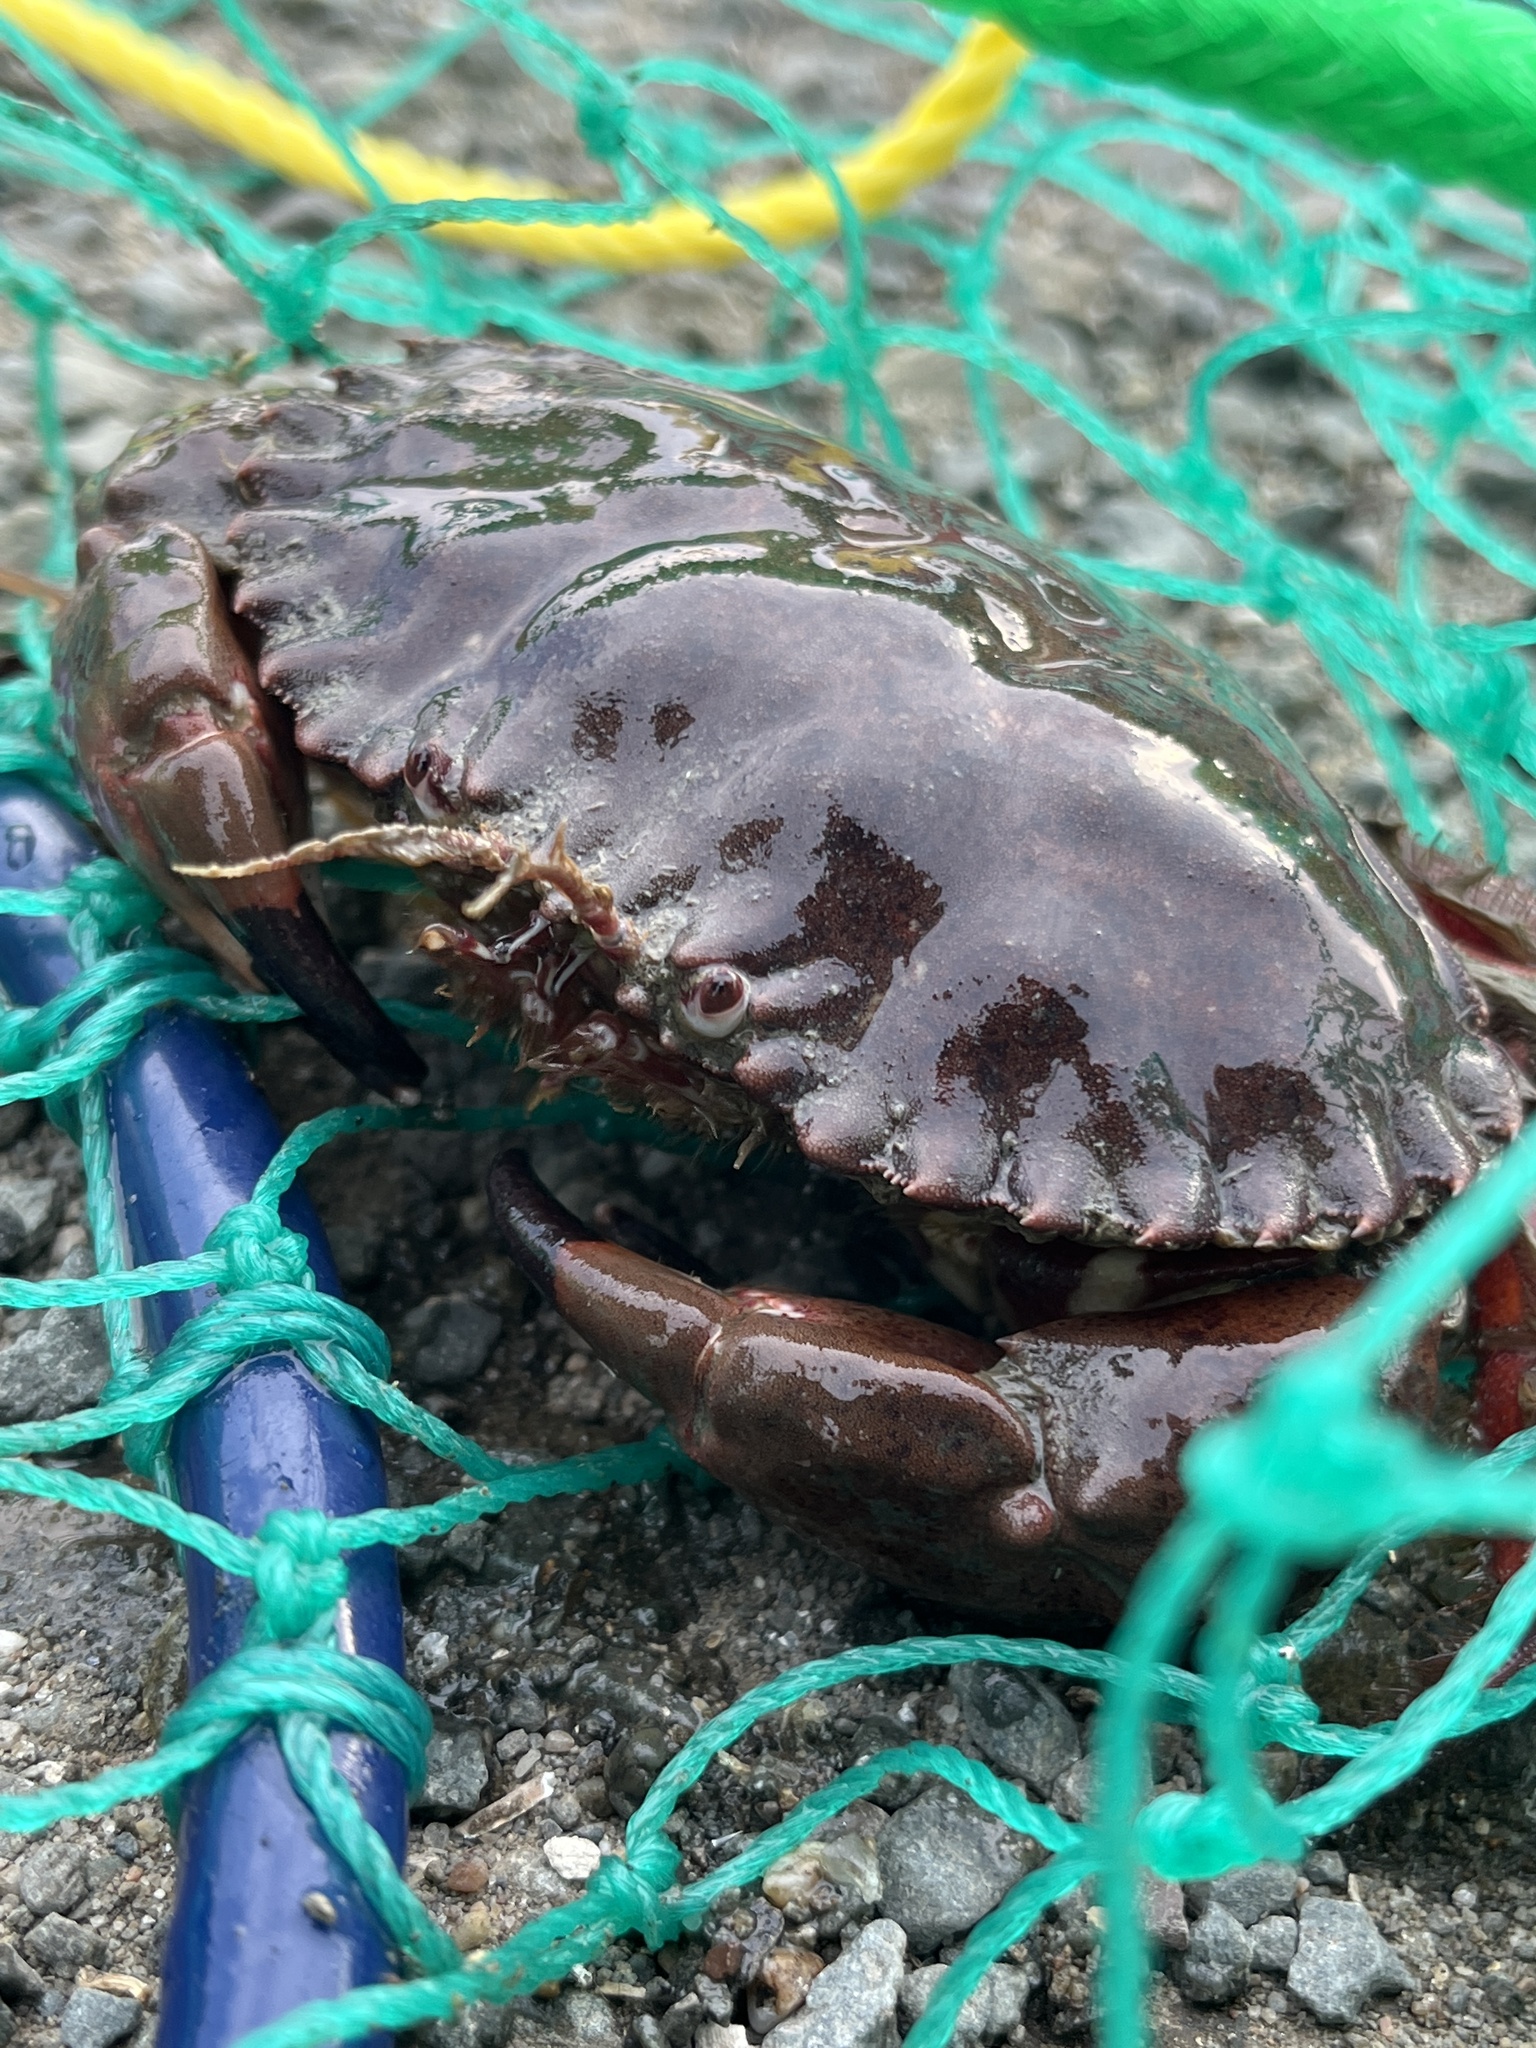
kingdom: Animalia
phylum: Arthropoda
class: Malacostraca
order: Decapoda
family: Cancridae
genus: Romaleon
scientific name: Romaleon antennarium
